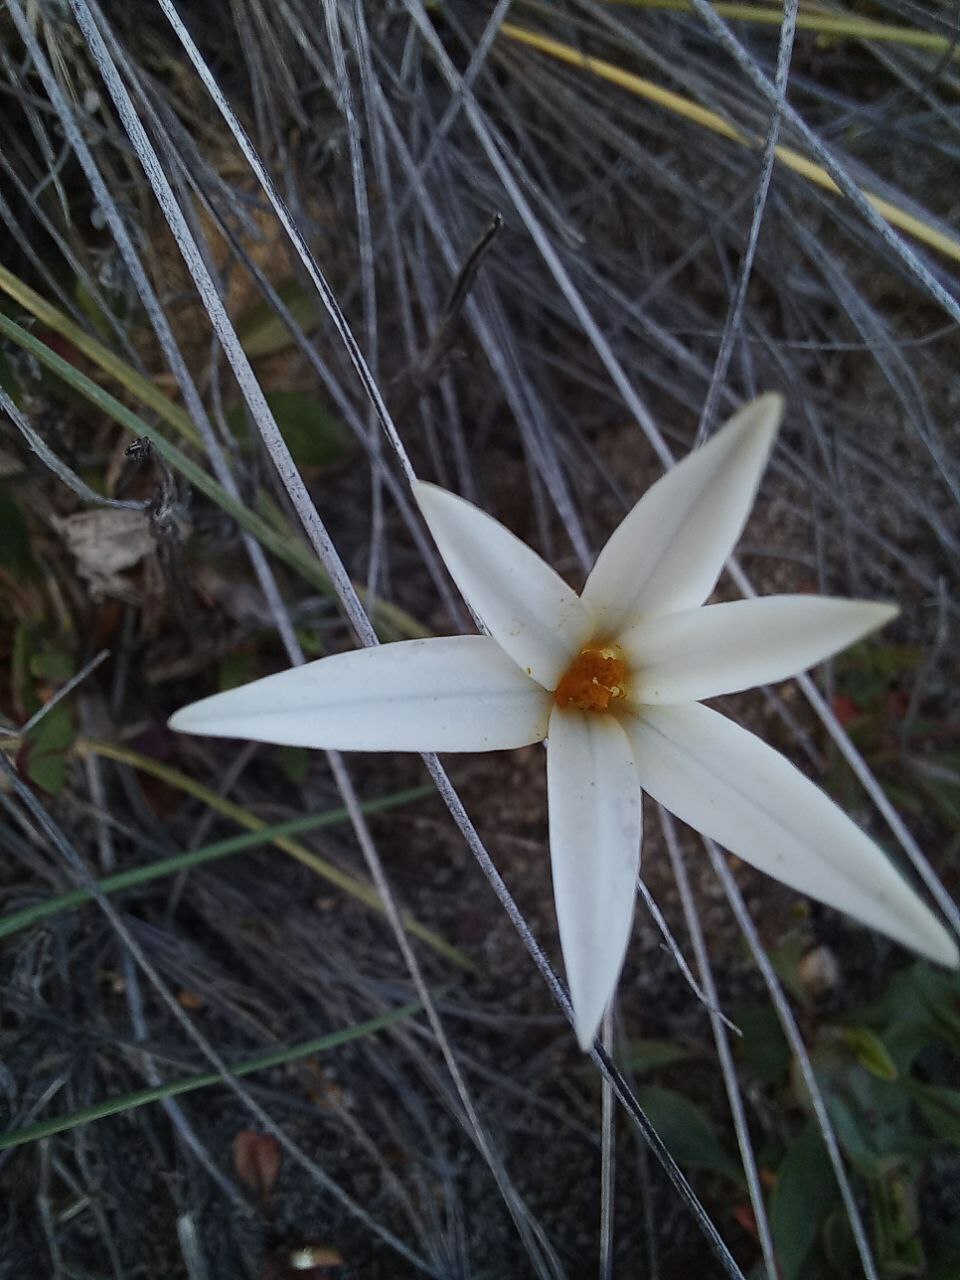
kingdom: Plantae
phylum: Tracheophyta
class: Liliopsida
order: Asparagales
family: Amaryllidaceae
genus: Tristagma
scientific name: Tristagma patagonicum
